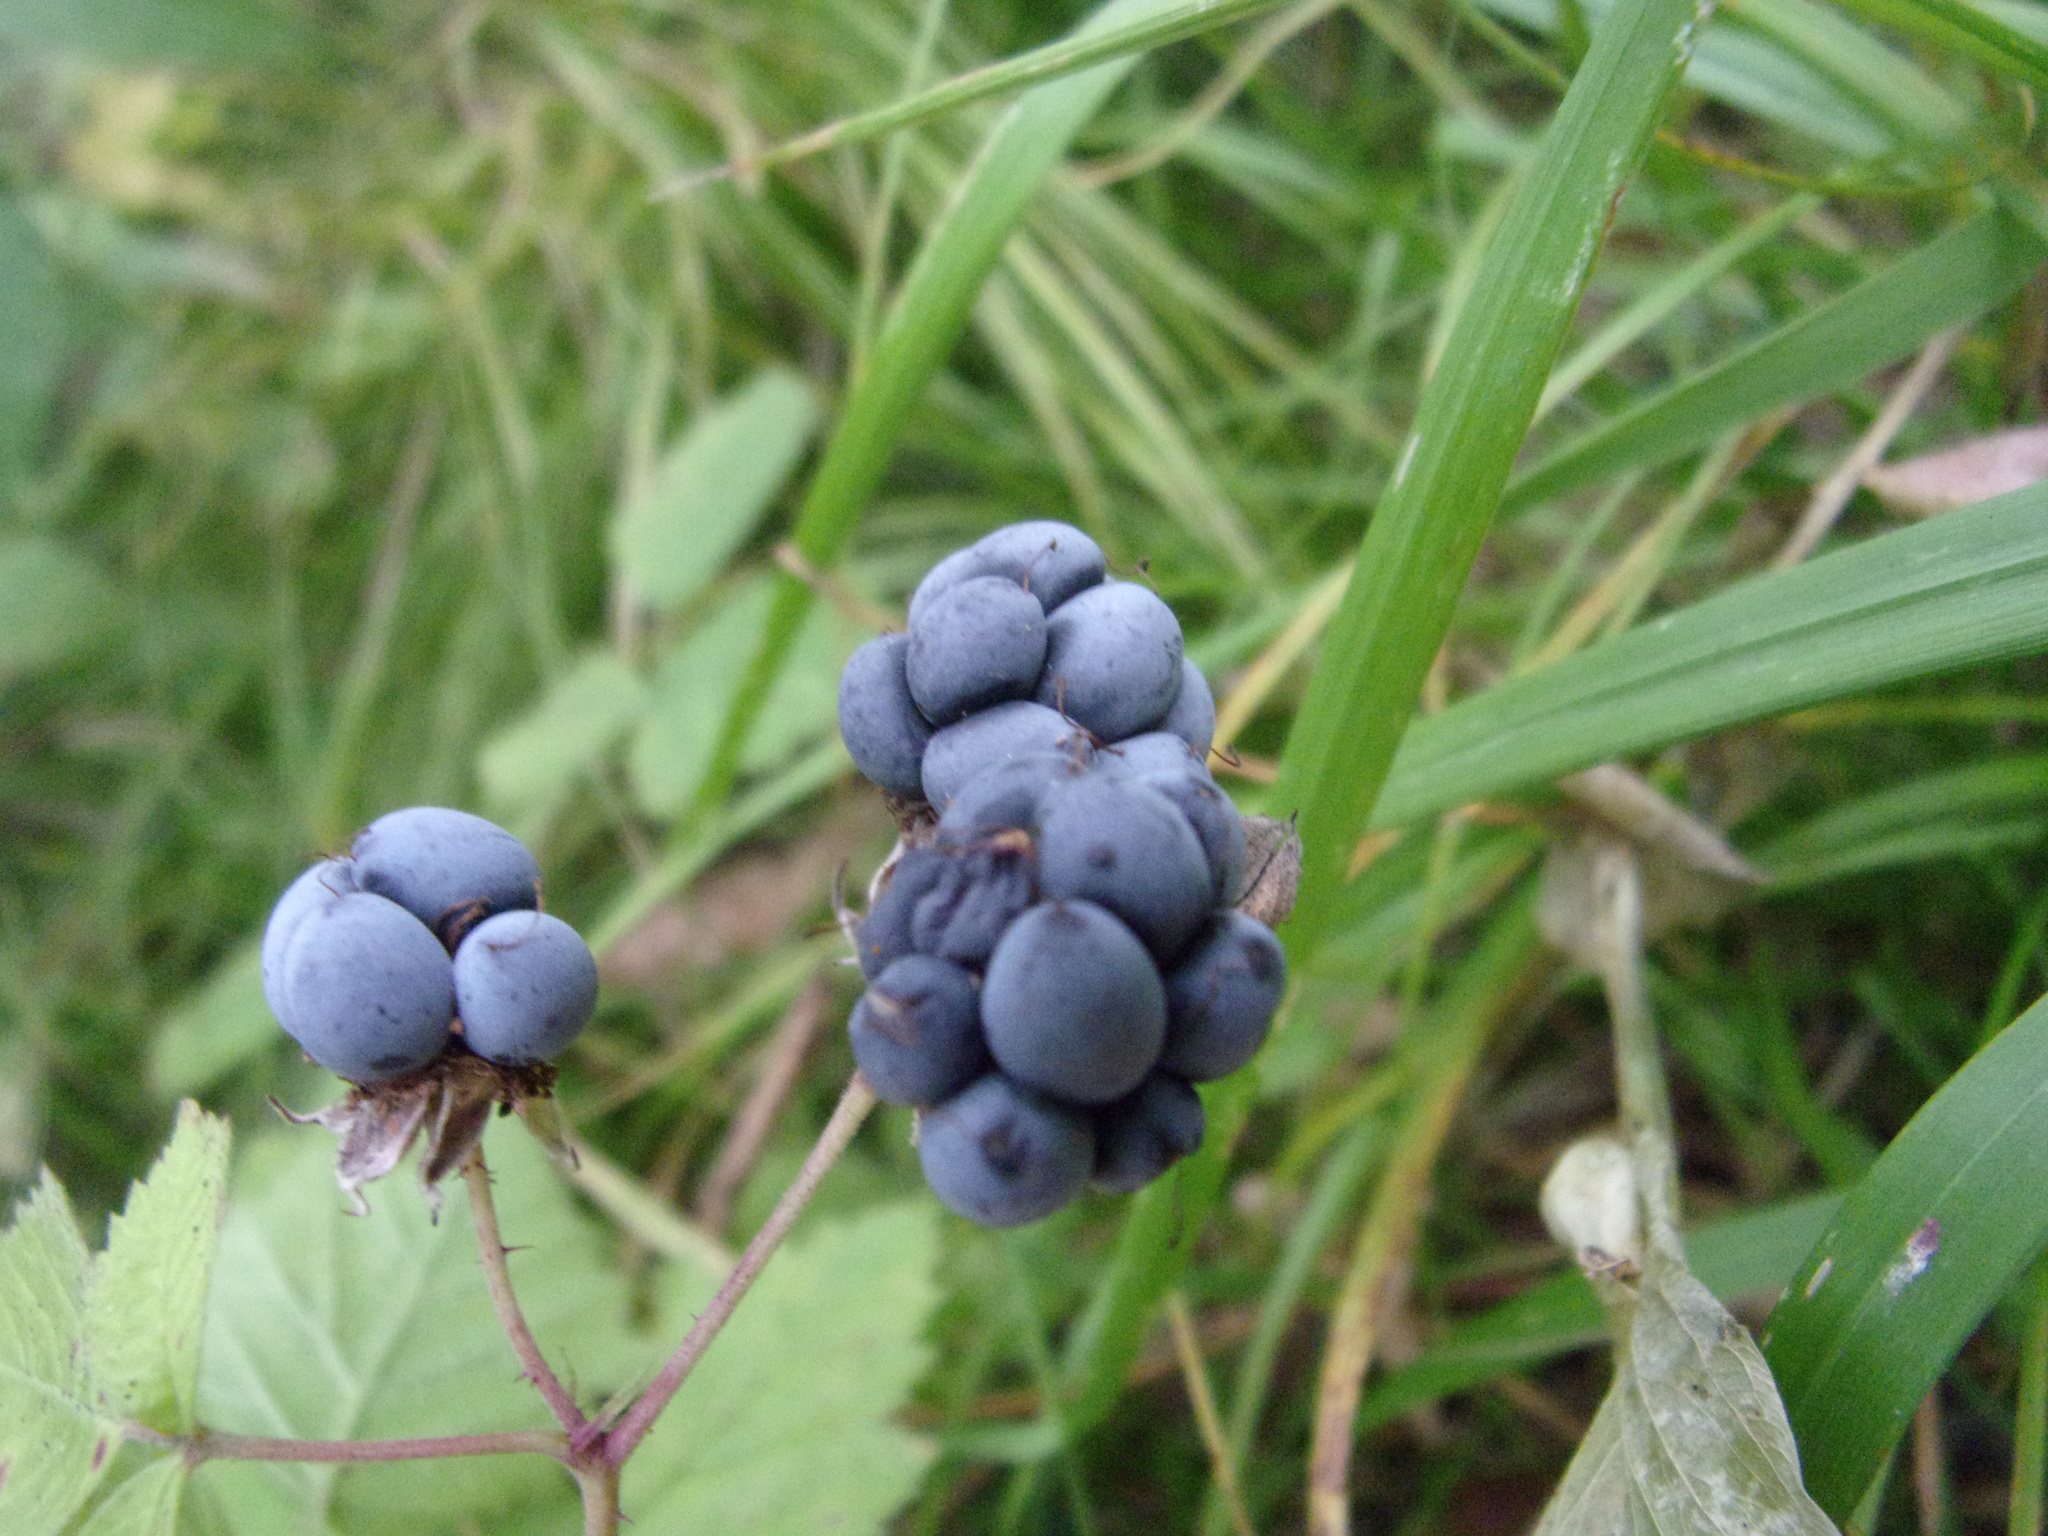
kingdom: Plantae
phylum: Tracheophyta
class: Magnoliopsida
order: Rosales
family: Rosaceae
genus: Rubus
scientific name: Rubus caesius
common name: Dewberry
